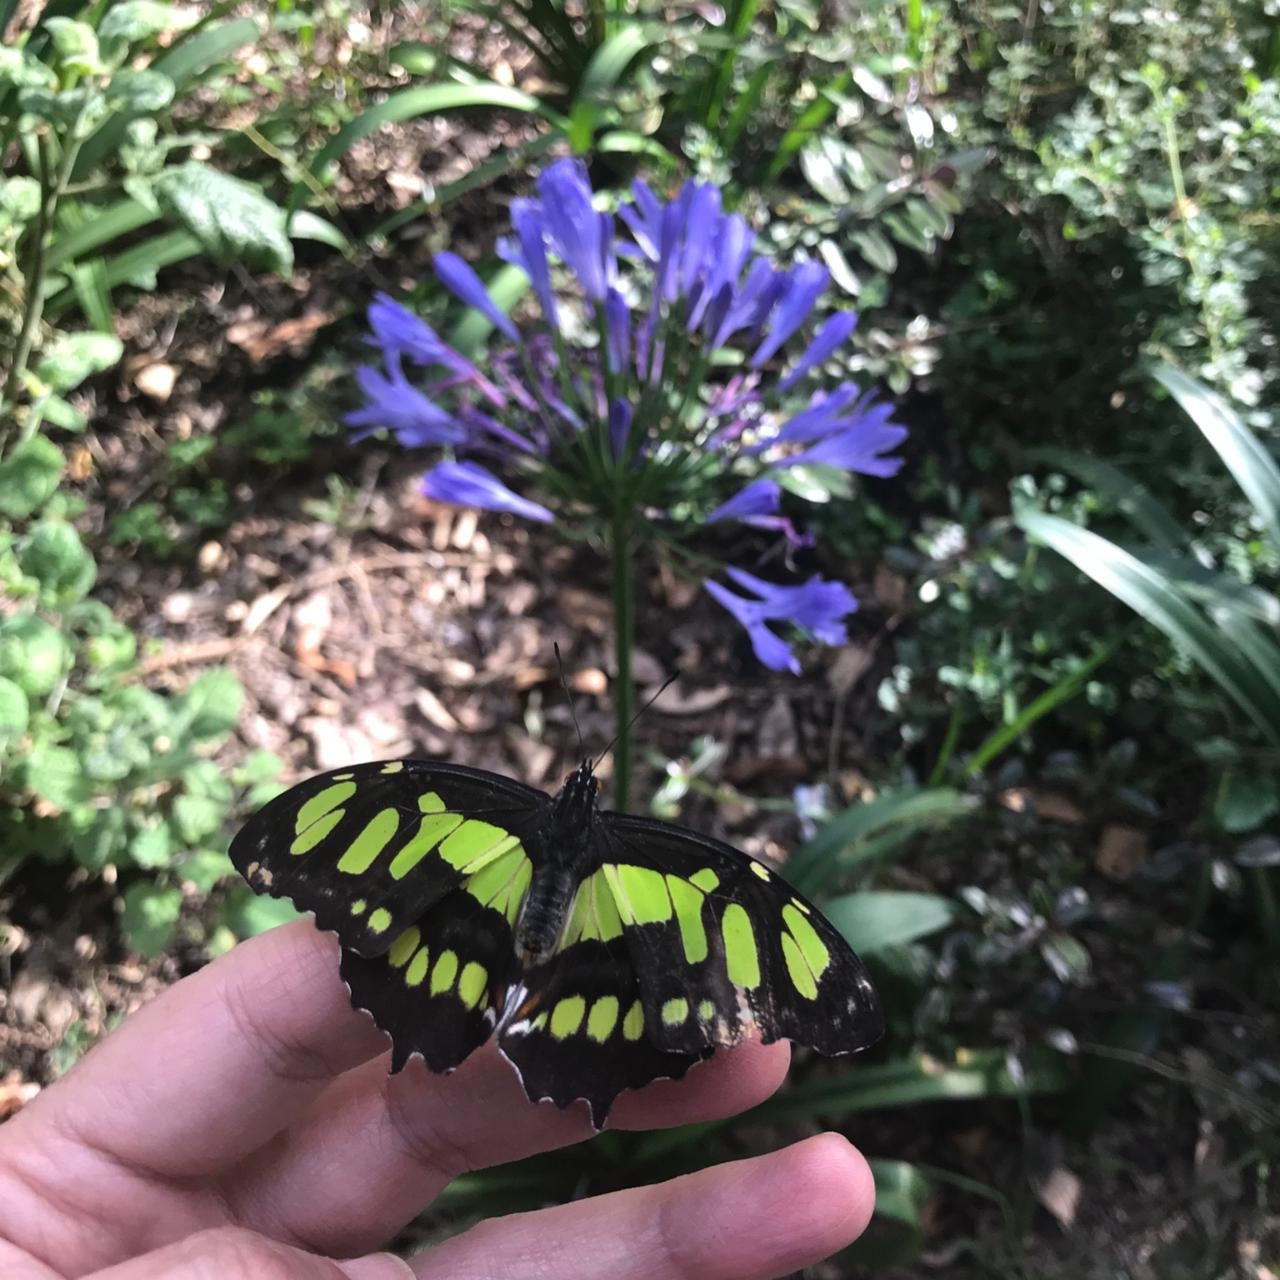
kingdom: Animalia
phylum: Arthropoda
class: Insecta
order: Lepidoptera
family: Nymphalidae
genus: Siproeta
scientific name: Siproeta stelenes
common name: Malachite
